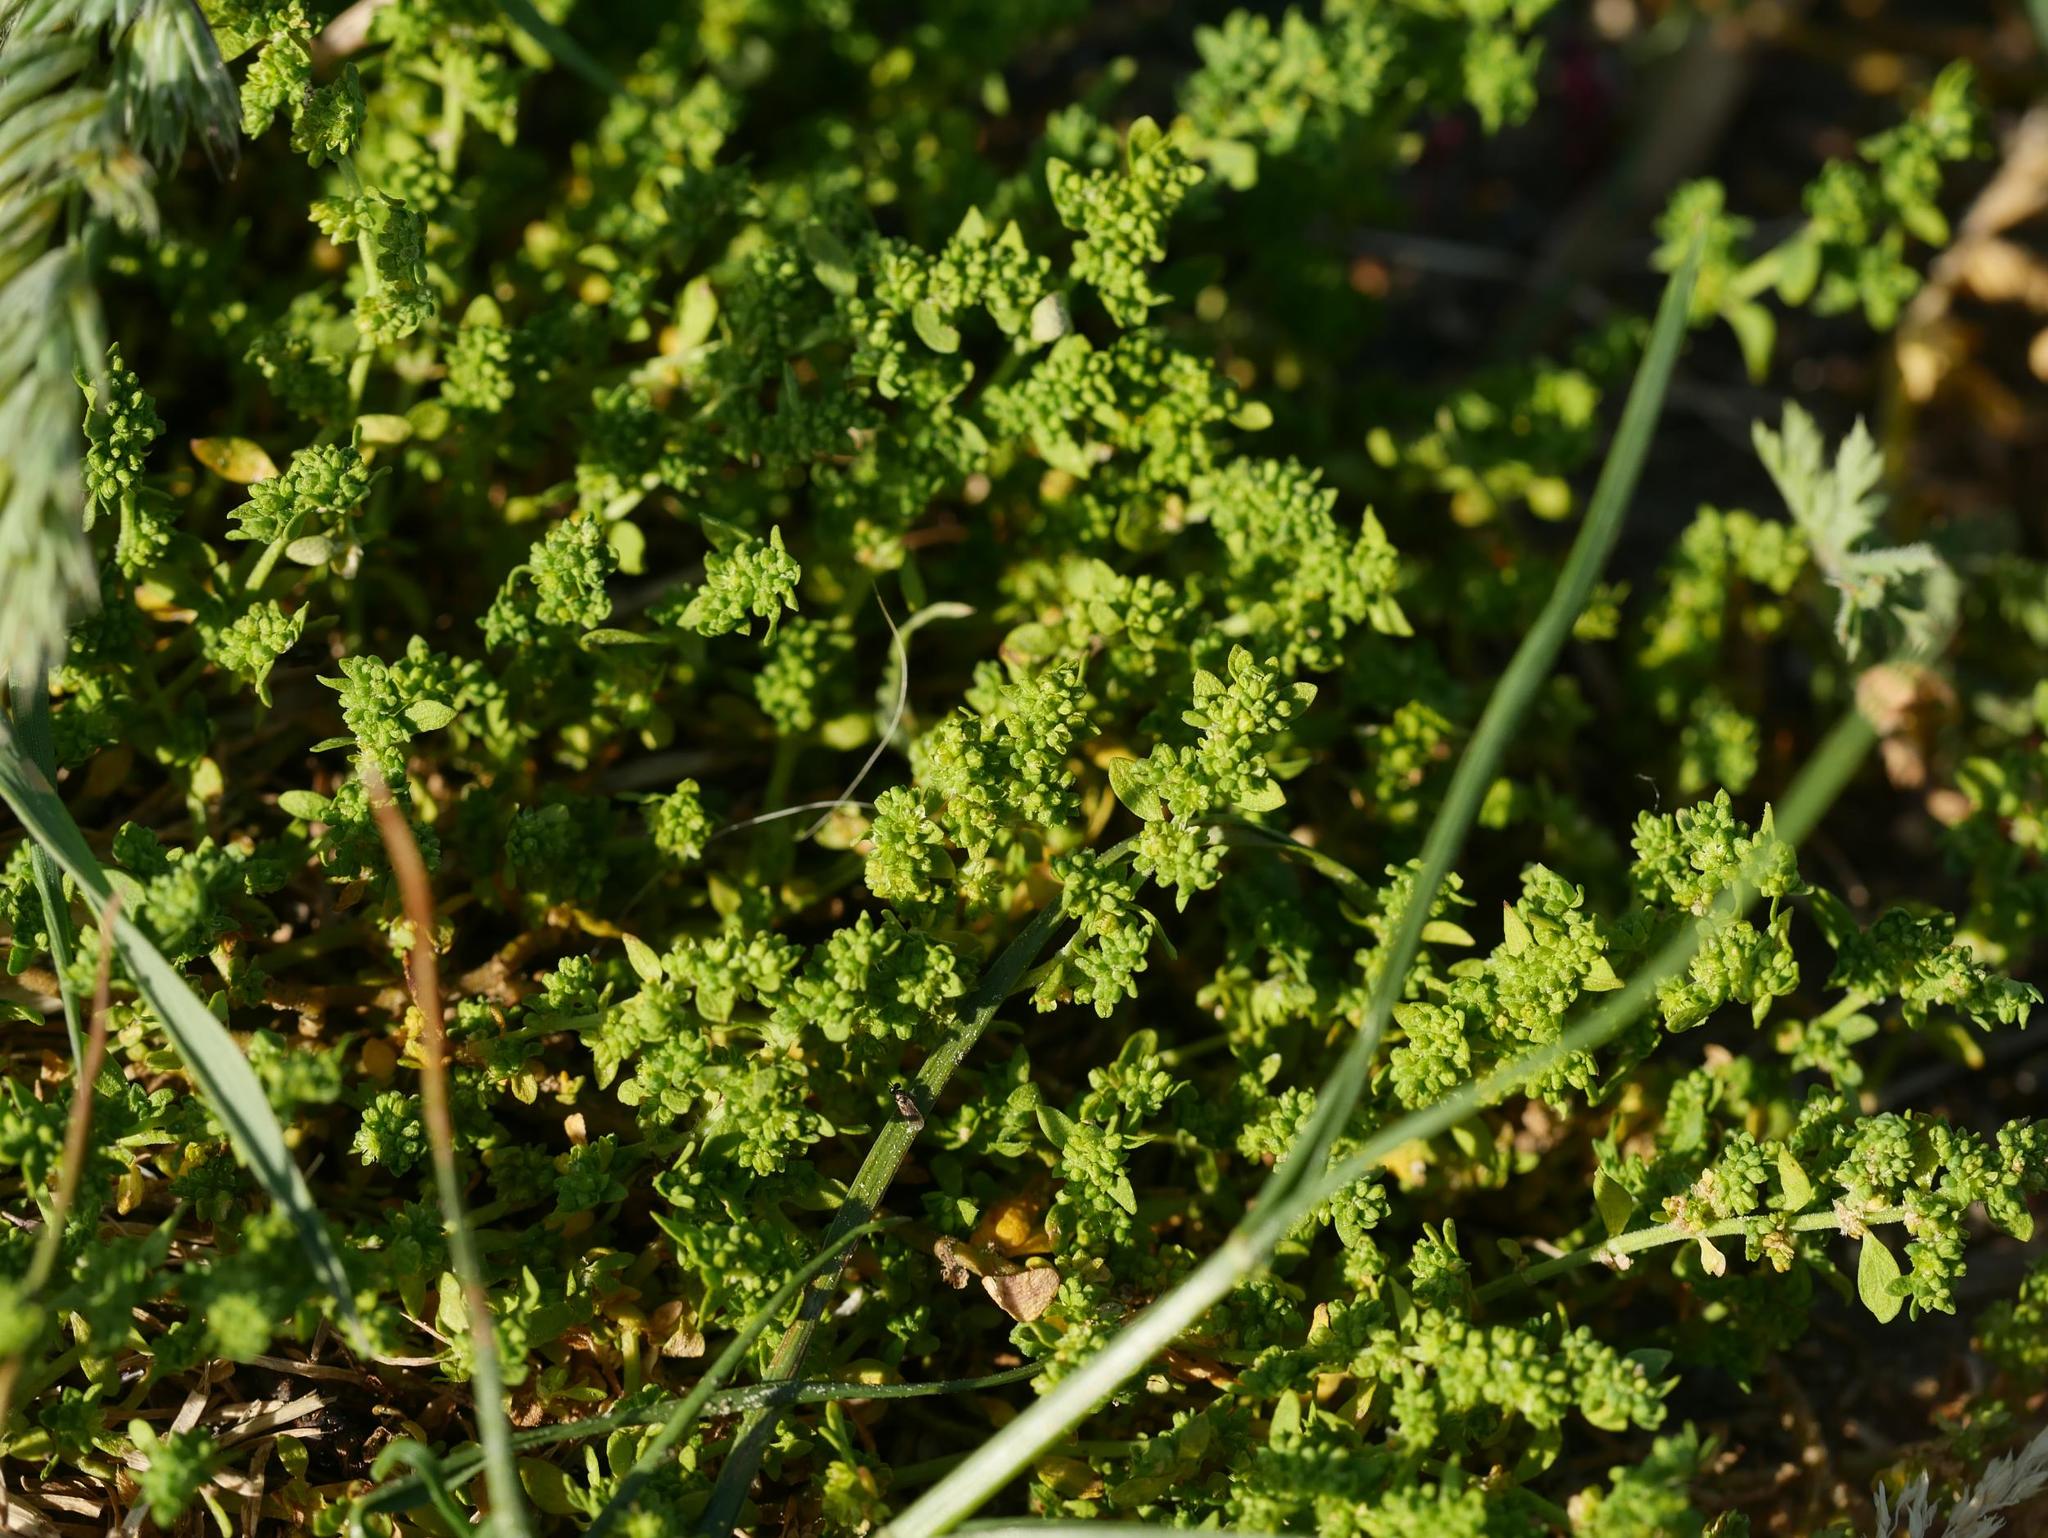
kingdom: Plantae
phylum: Tracheophyta
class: Magnoliopsida
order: Caryophyllales
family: Caryophyllaceae
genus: Herniaria
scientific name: Herniaria glabra
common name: Smooth rupturewort
